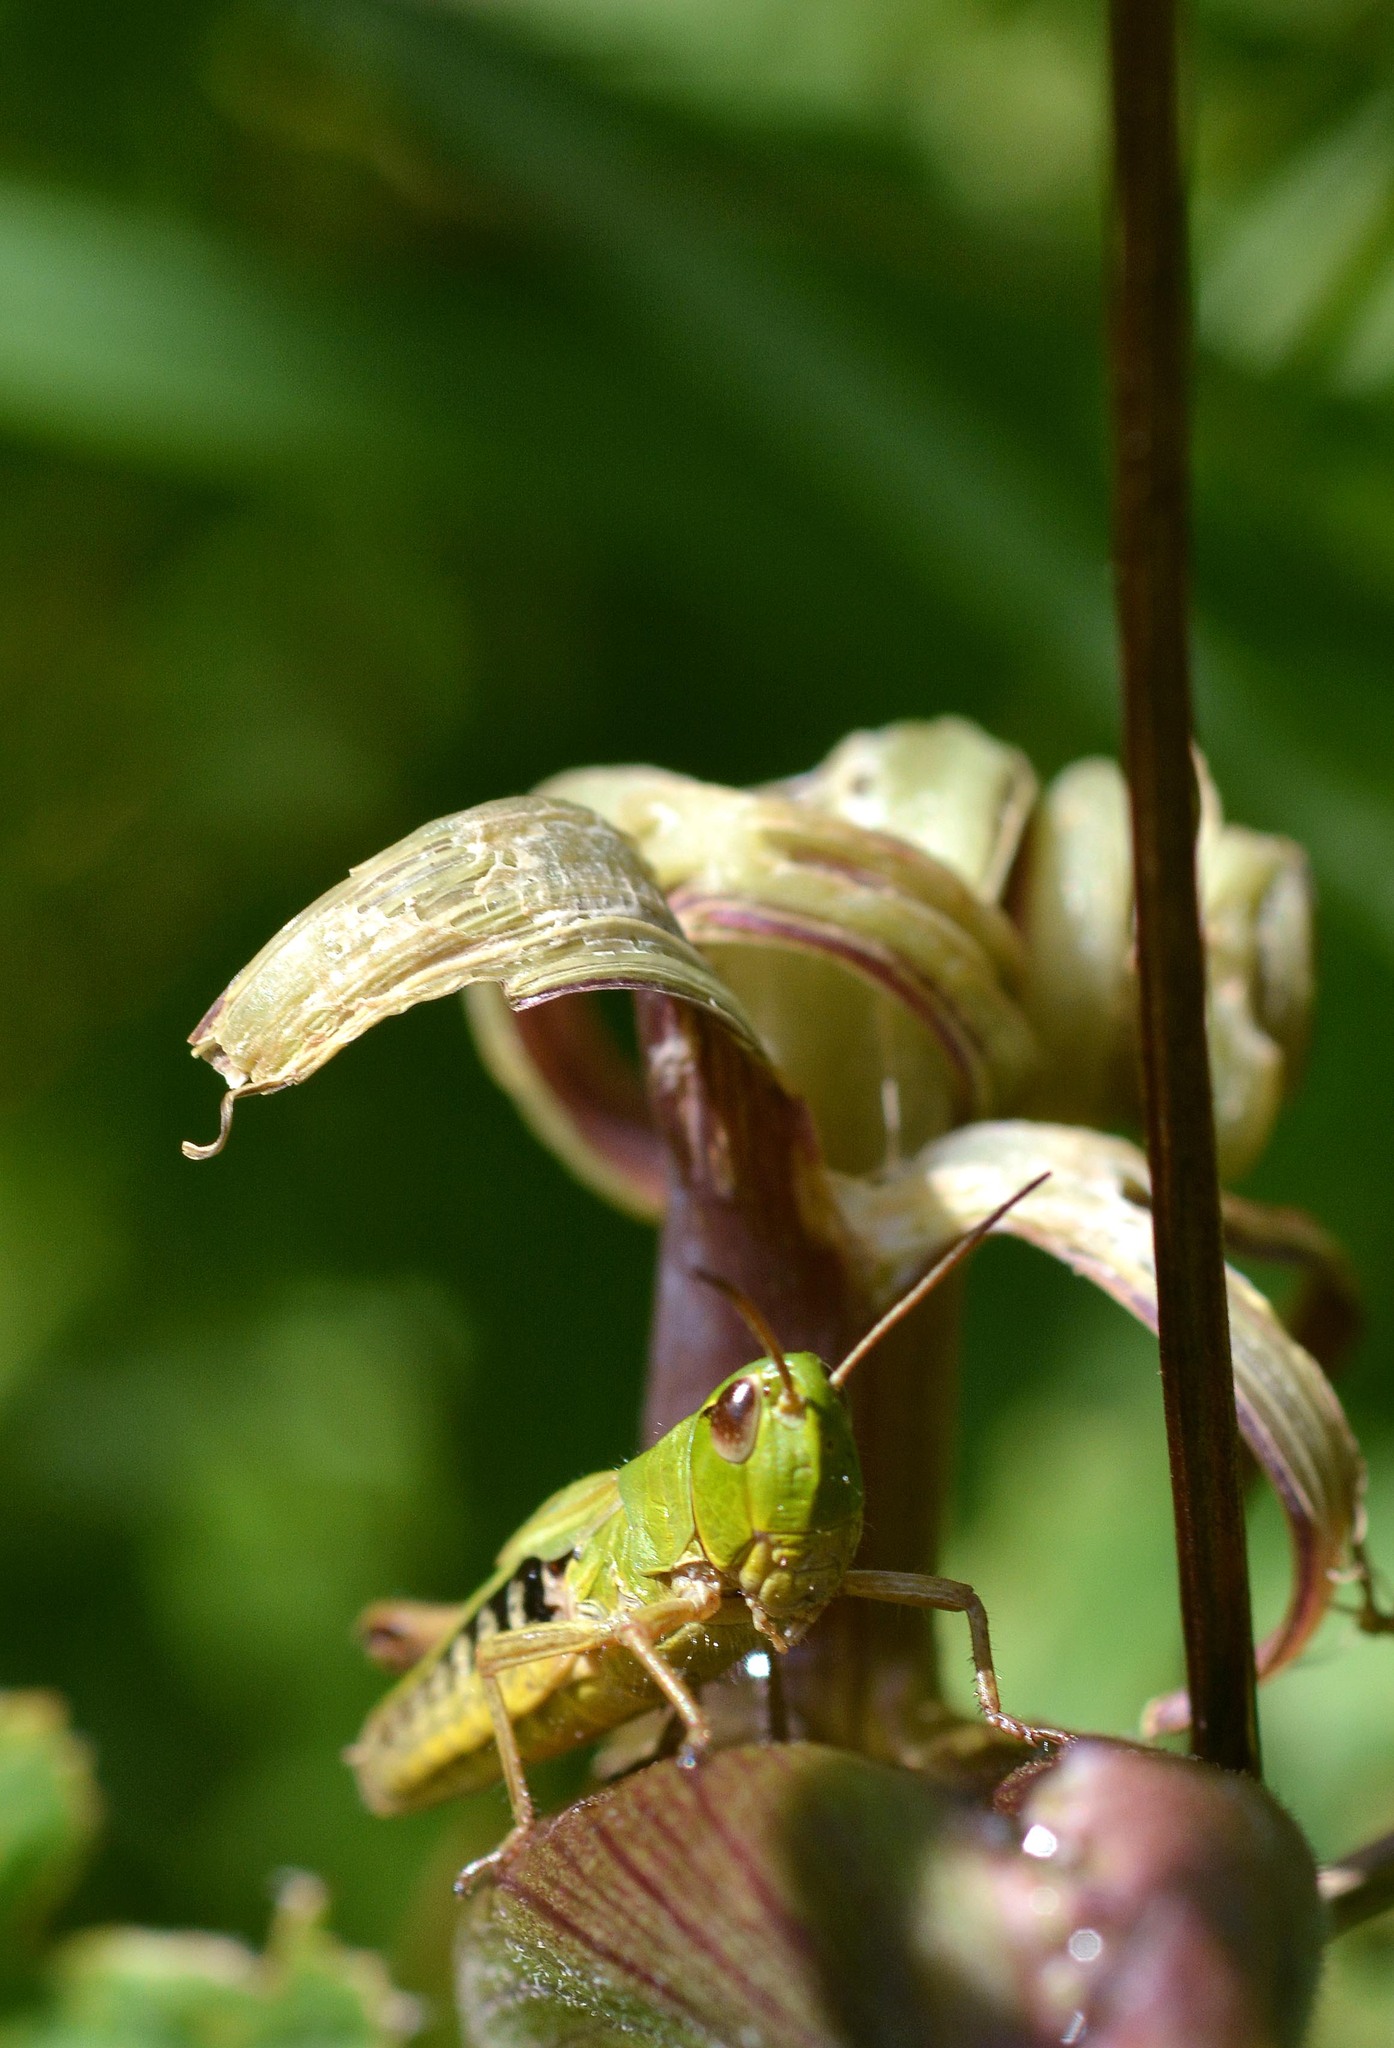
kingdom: Animalia
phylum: Arthropoda
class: Insecta
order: Orthoptera
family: Acrididae
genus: Pseudochorthippus
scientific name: Pseudochorthippus parallelus
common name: Meadow grasshopper
